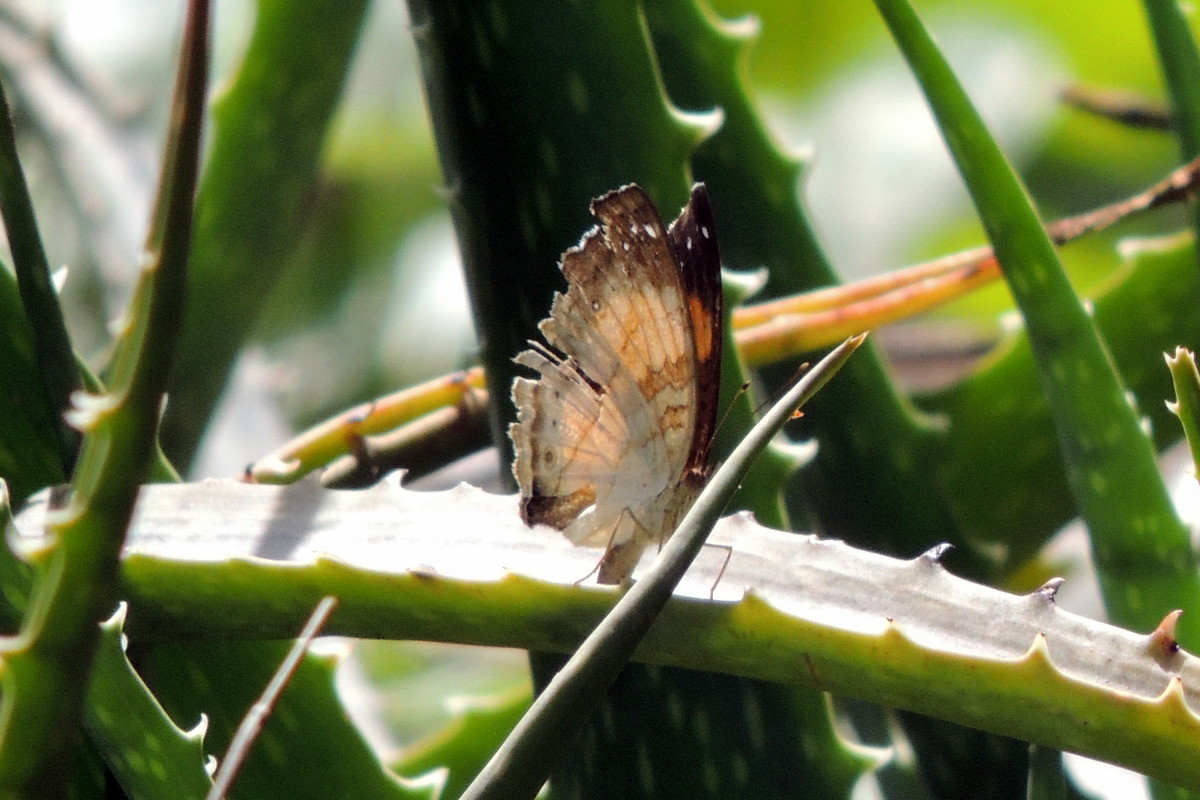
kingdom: Animalia
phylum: Arthropoda
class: Insecta
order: Lepidoptera
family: Nymphalidae
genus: Junonia
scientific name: Junonia terea
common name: Soldier pansy
